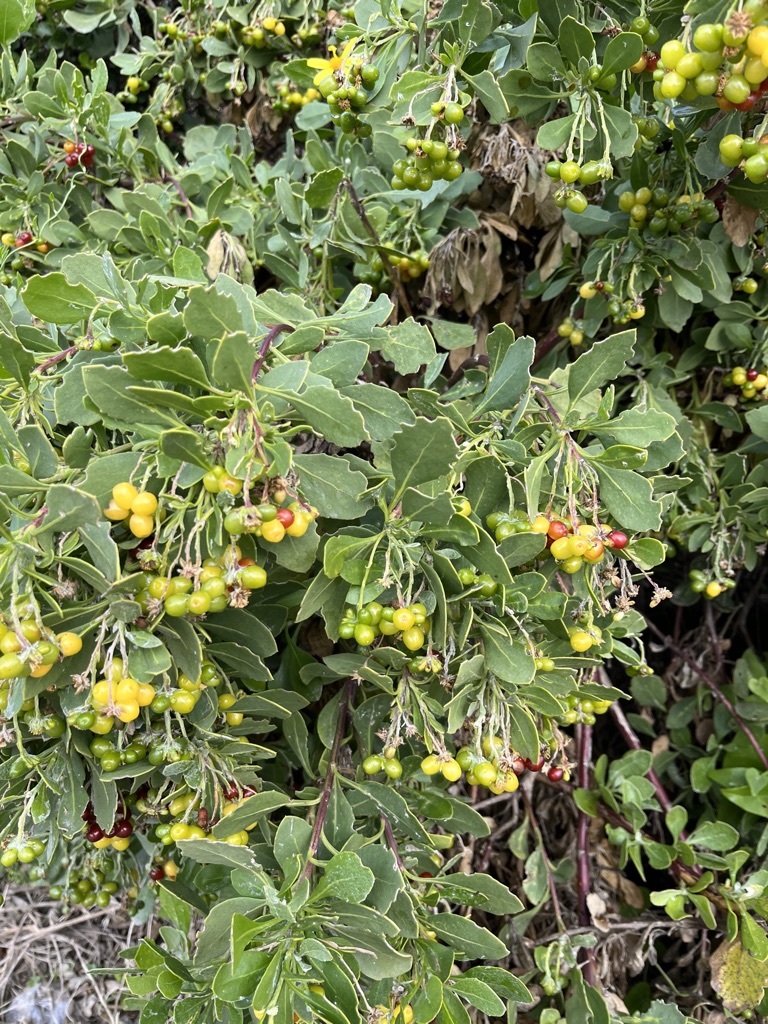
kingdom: Plantae
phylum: Tracheophyta
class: Magnoliopsida
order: Asterales
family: Asteraceae
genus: Osteospermum
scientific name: Osteospermum moniliferum
